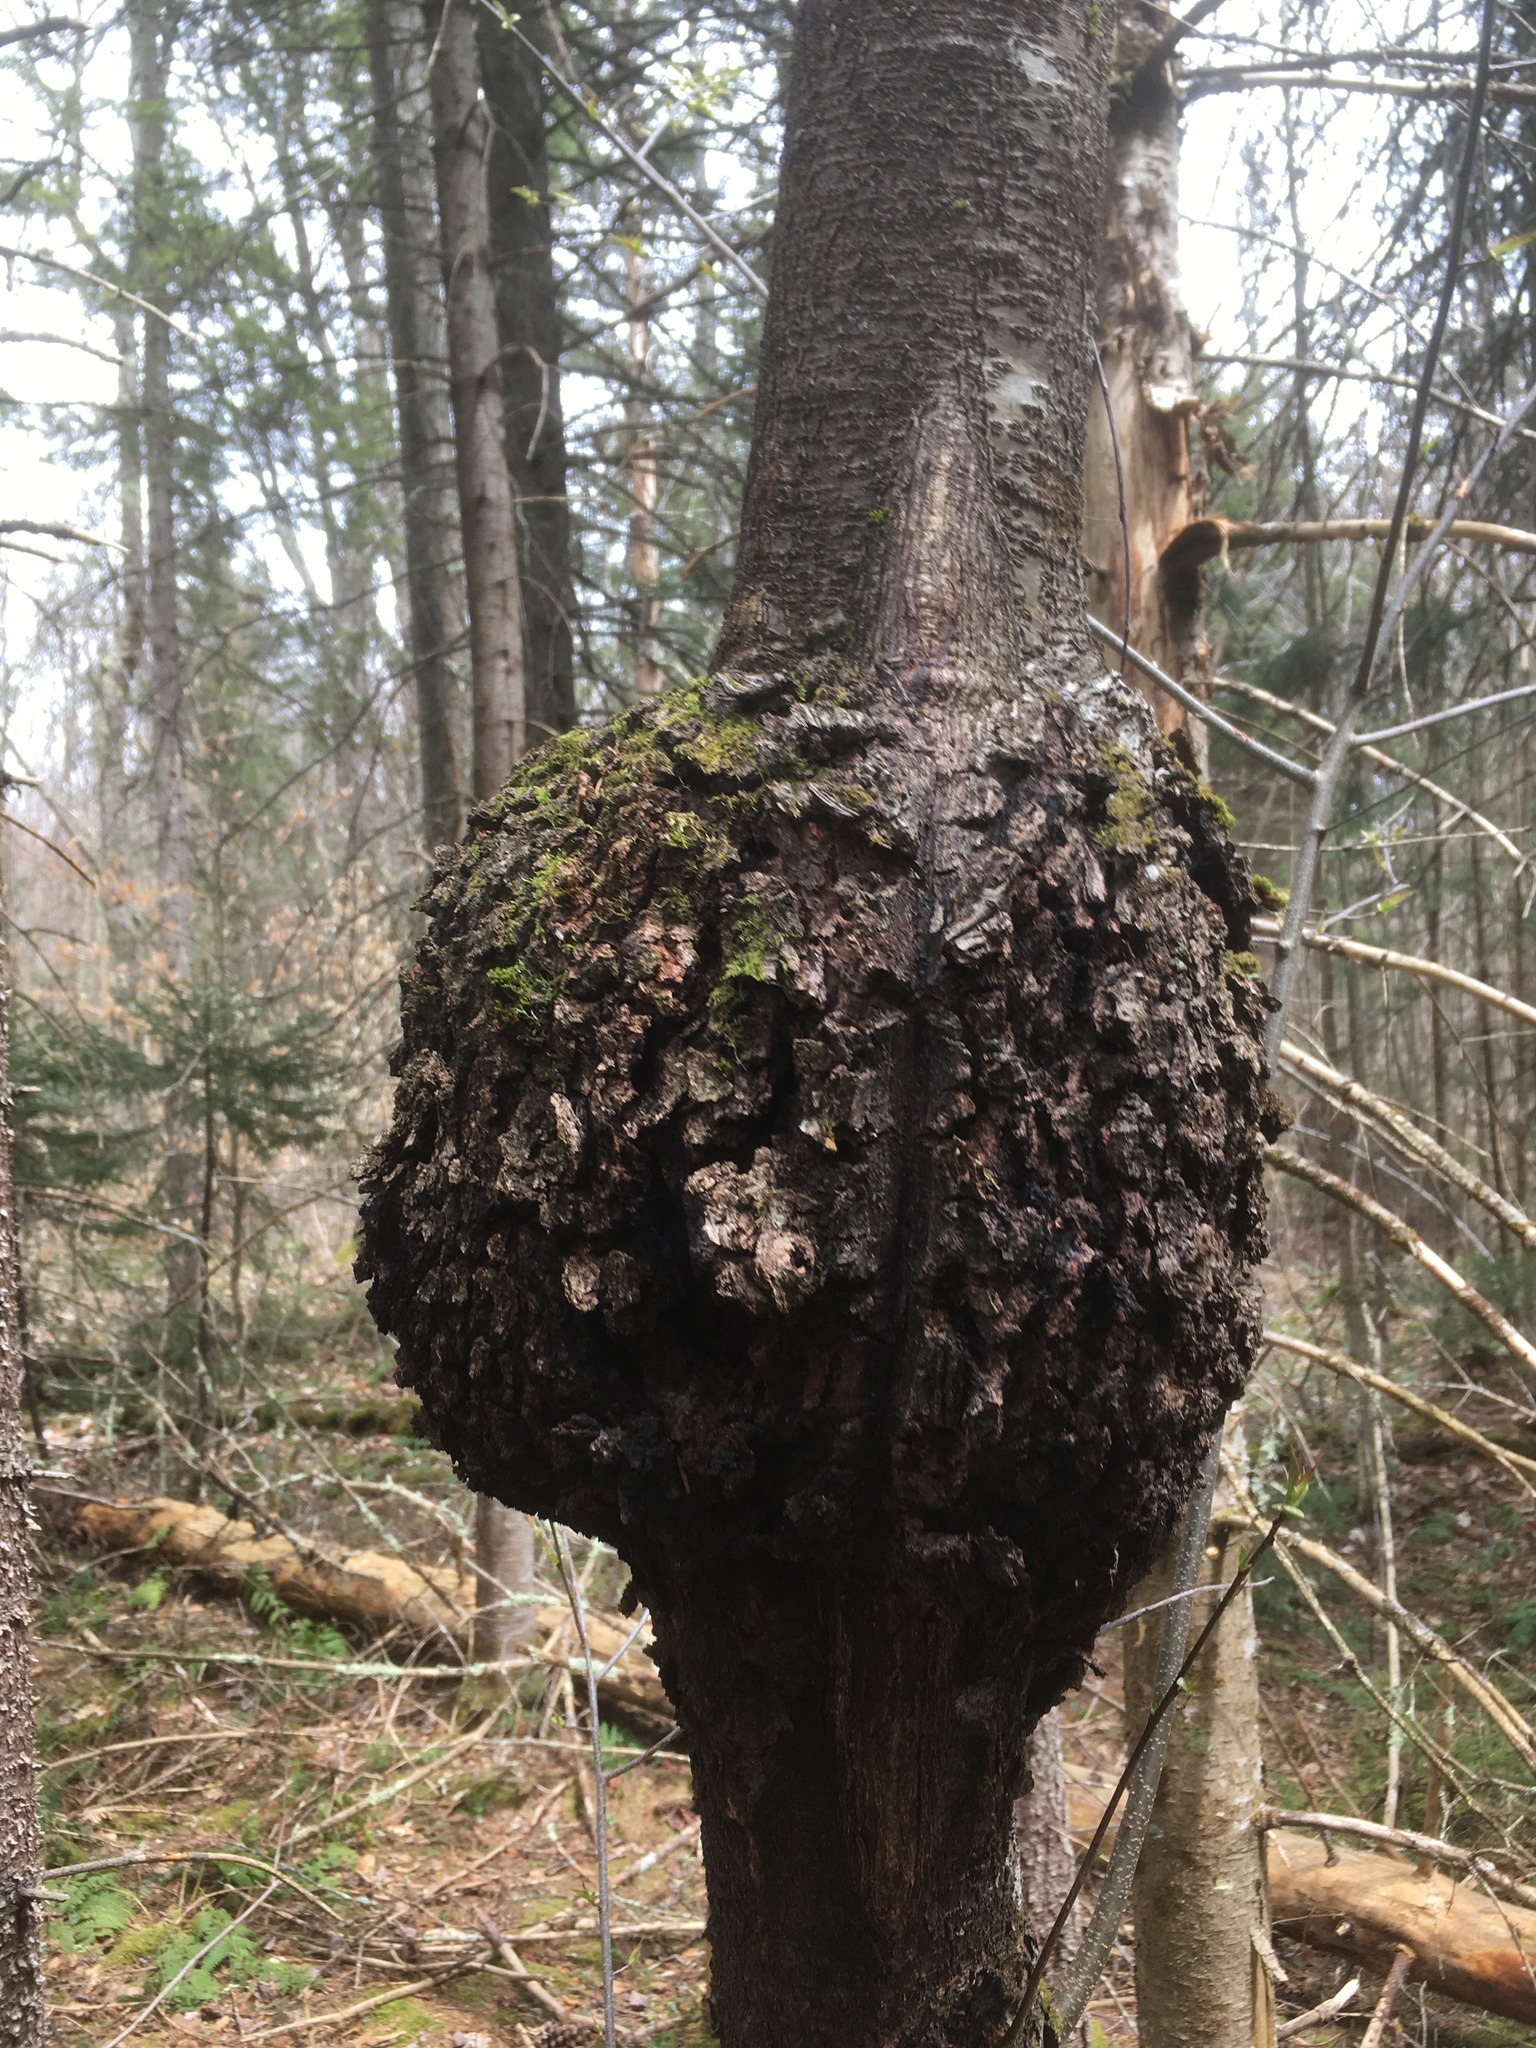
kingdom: Fungi
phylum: Ascomycota
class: Dothideomycetes
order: Venturiales
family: Venturiaceae
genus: Apiosporina
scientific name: Apiosporina morbosa
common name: Black knot
